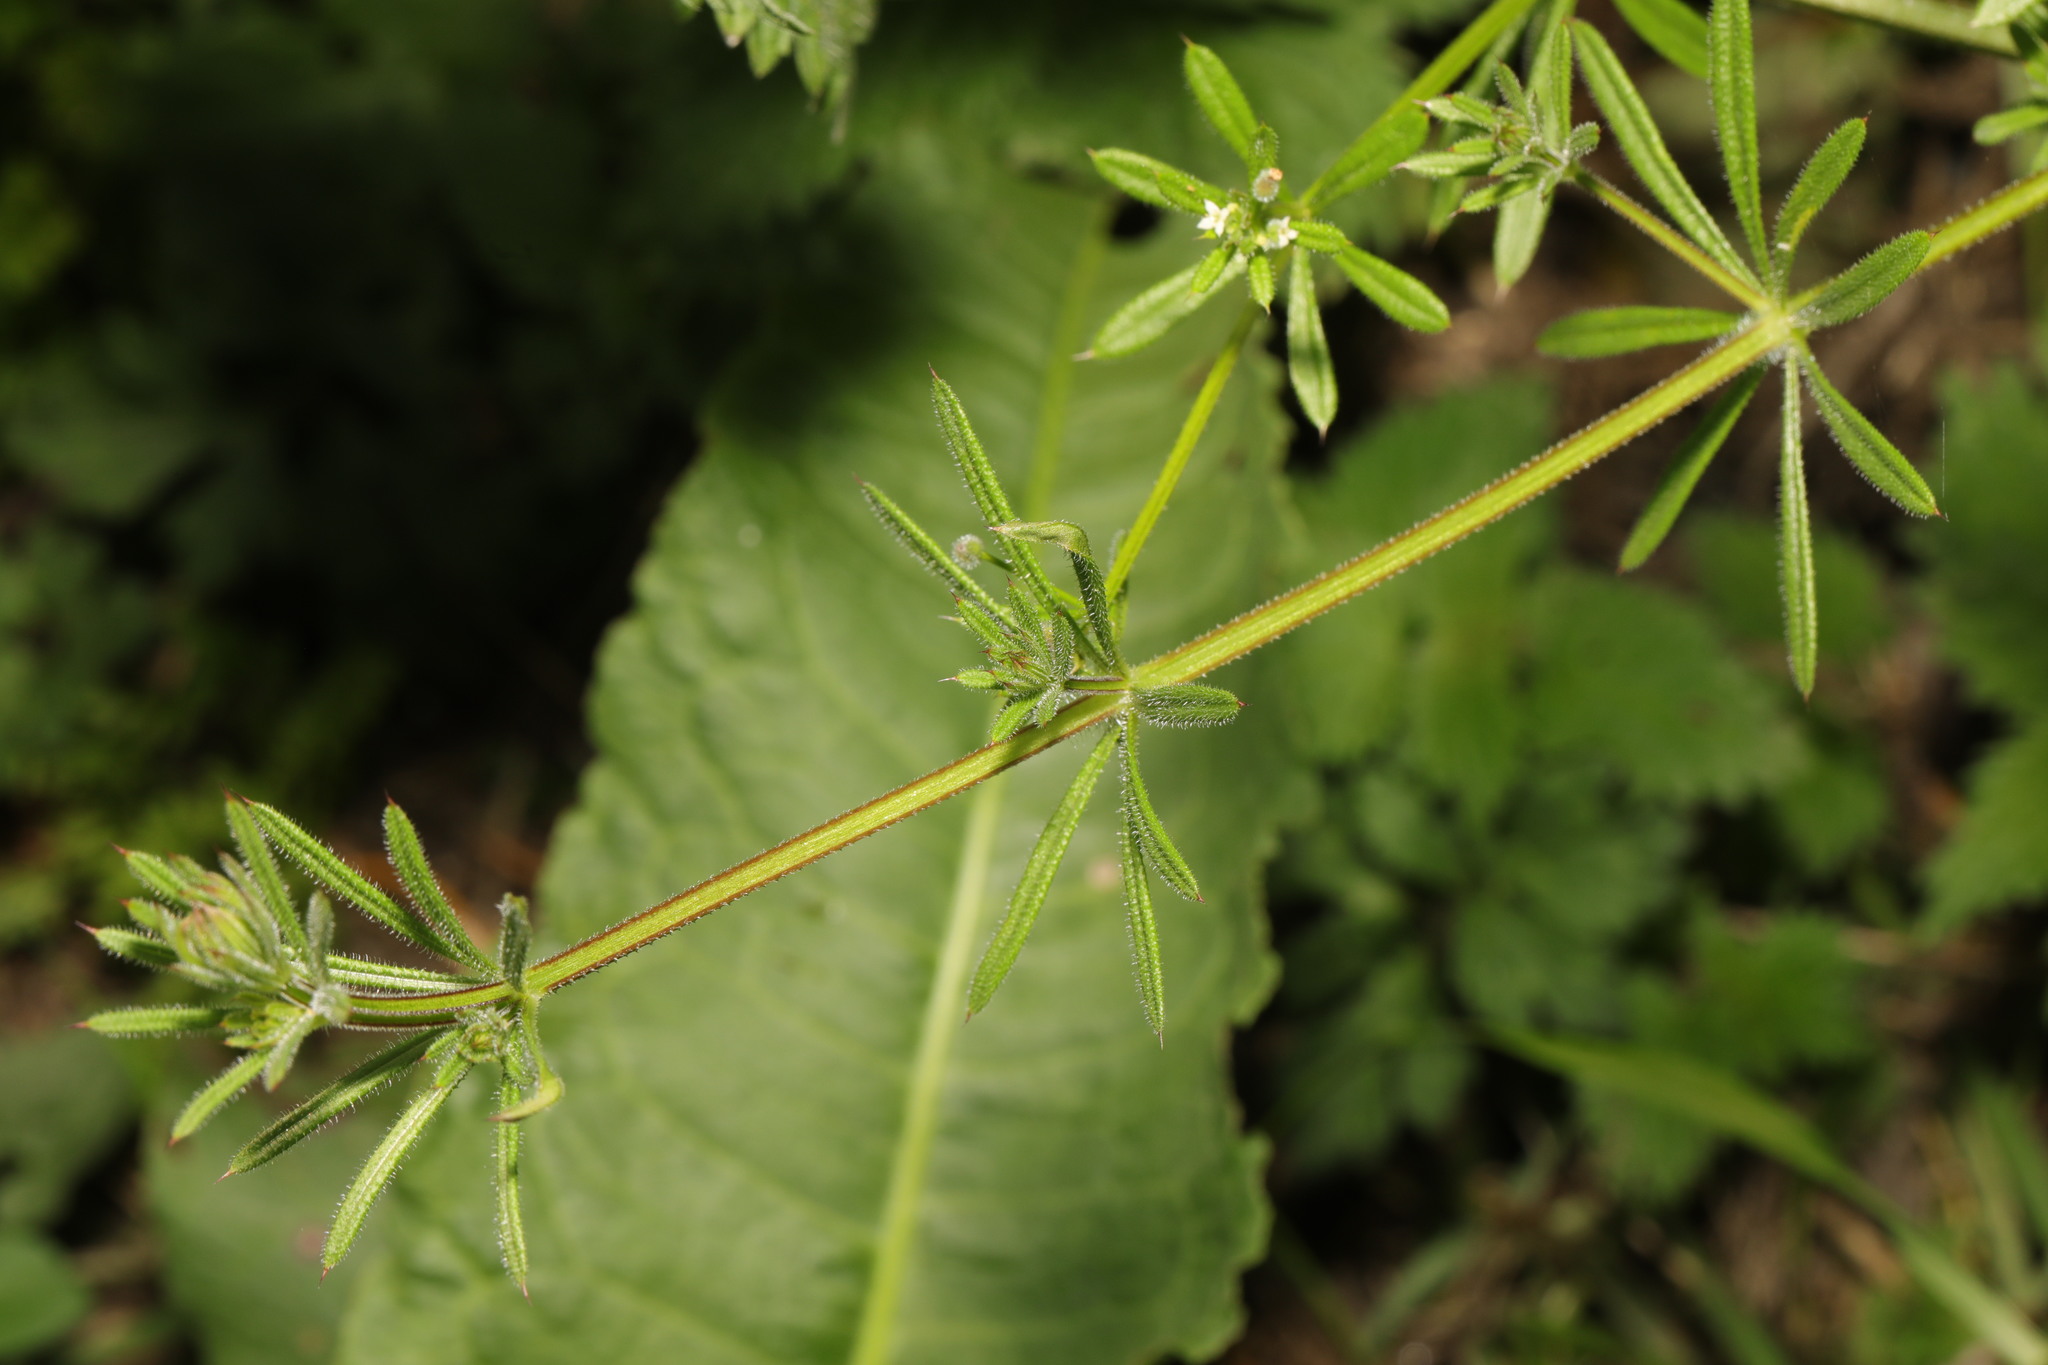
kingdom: Plantae
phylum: Tracheophyta
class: Magnoliopsida
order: Gentianales
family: Rubiaceae
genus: Galium
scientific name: Galium aparine
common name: Cleavers
